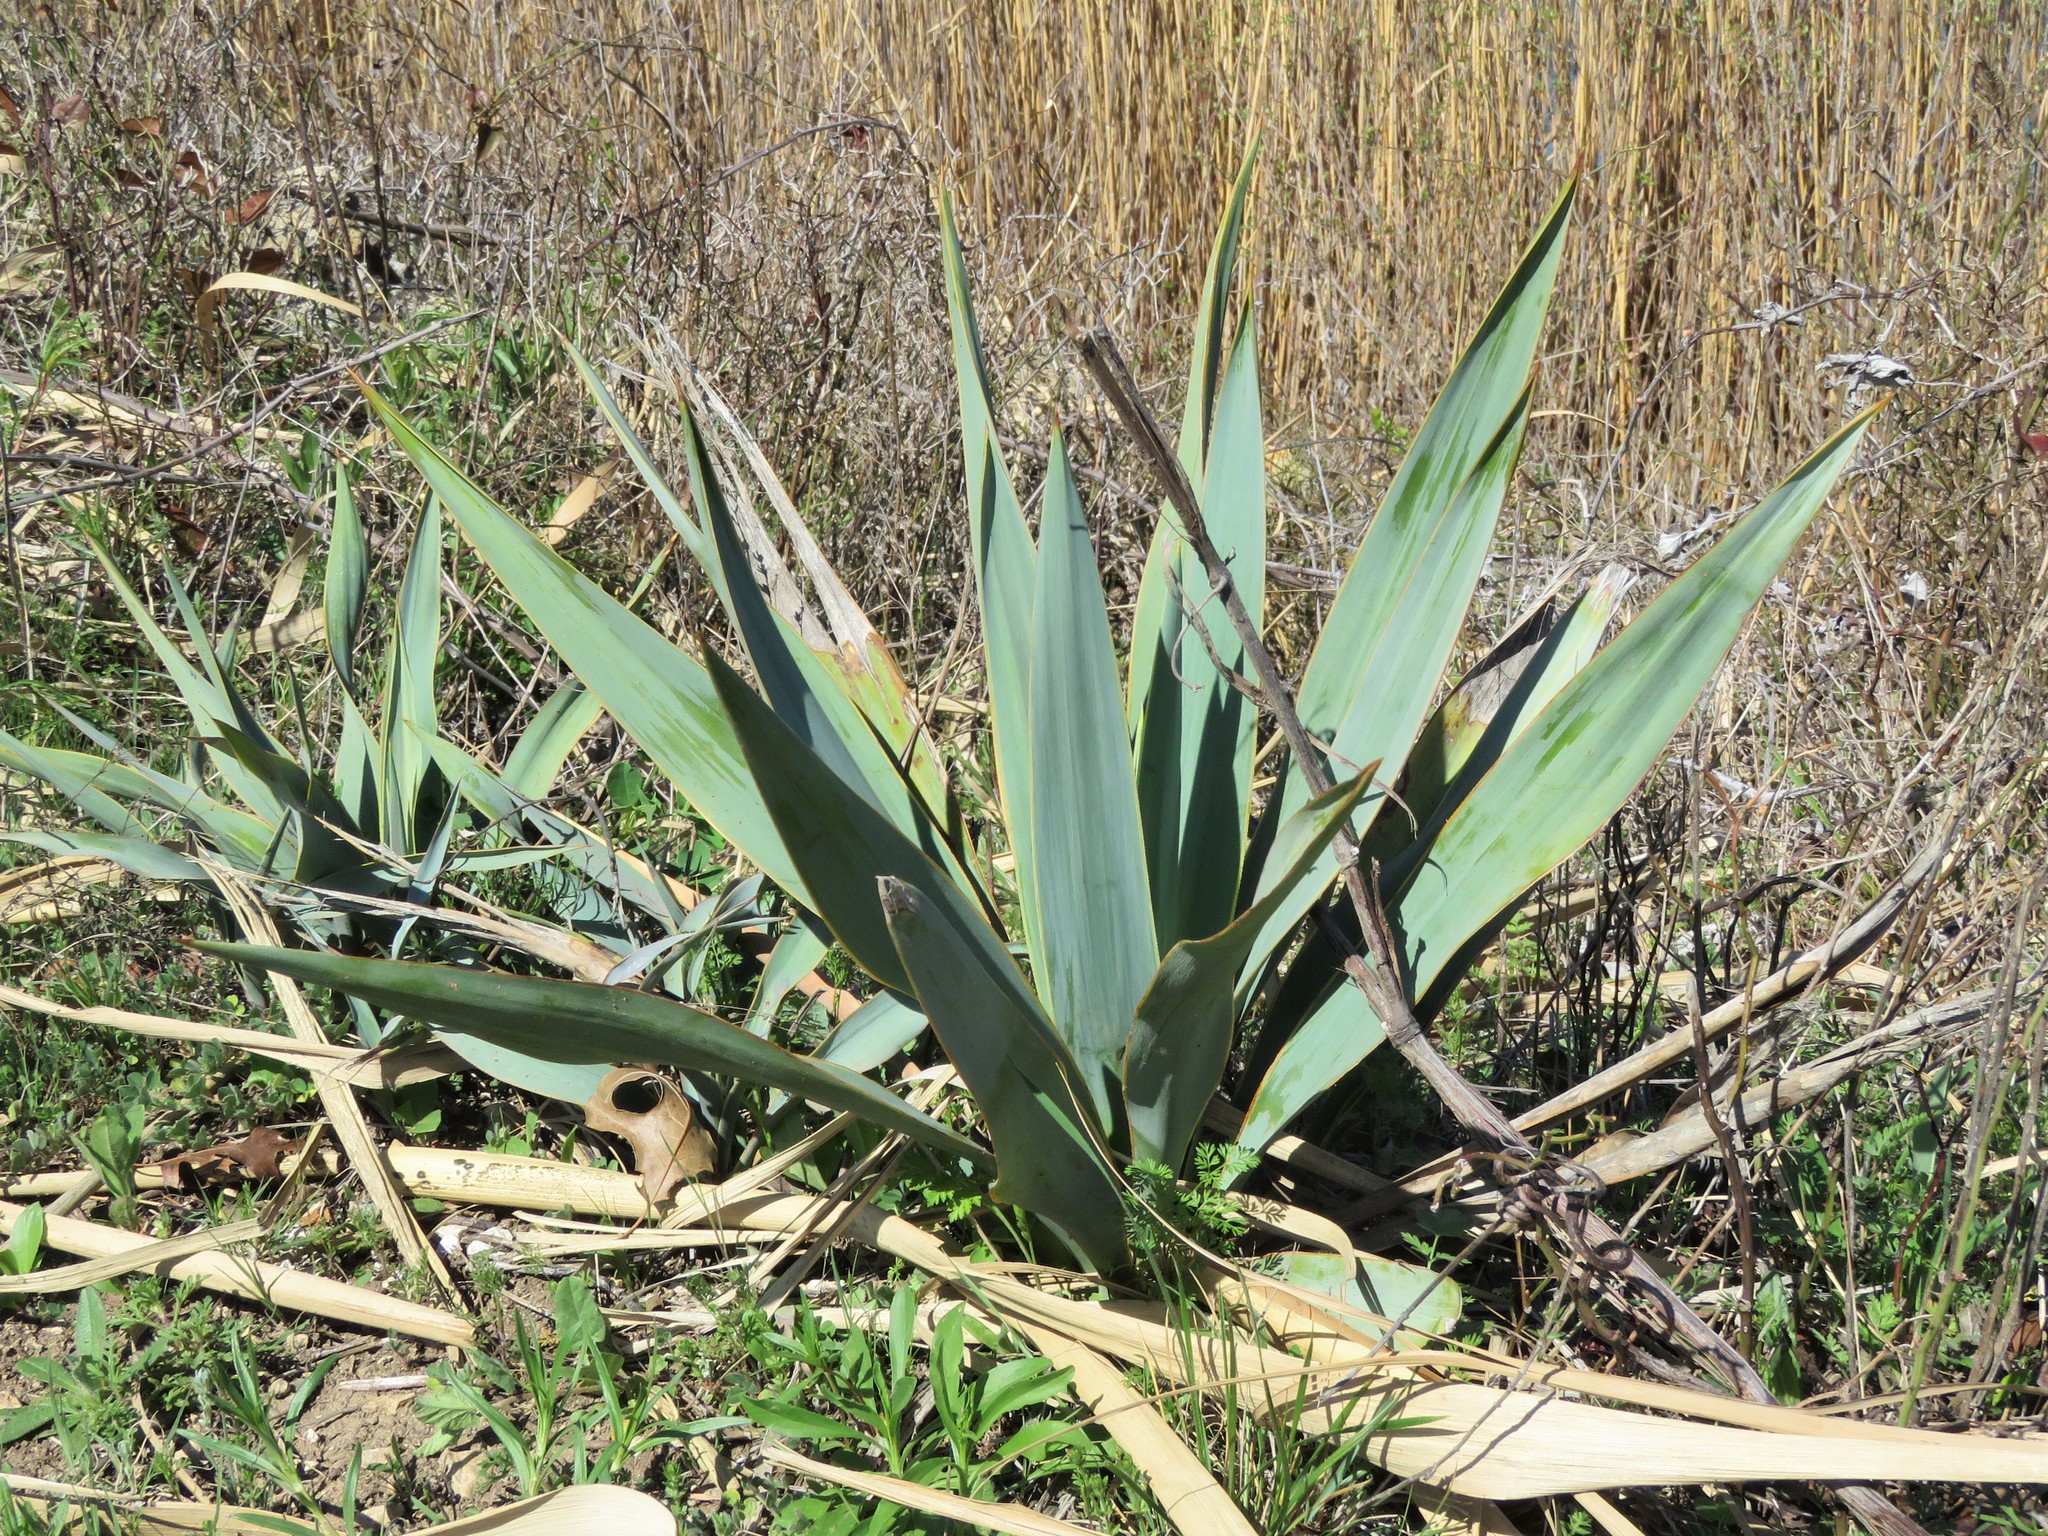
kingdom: Plantae
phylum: Tracheophyta
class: Liliopsida
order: Asparagales
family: Asparagaceae
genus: Yucca
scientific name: Yucca pallida
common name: Pale leaf yucca
